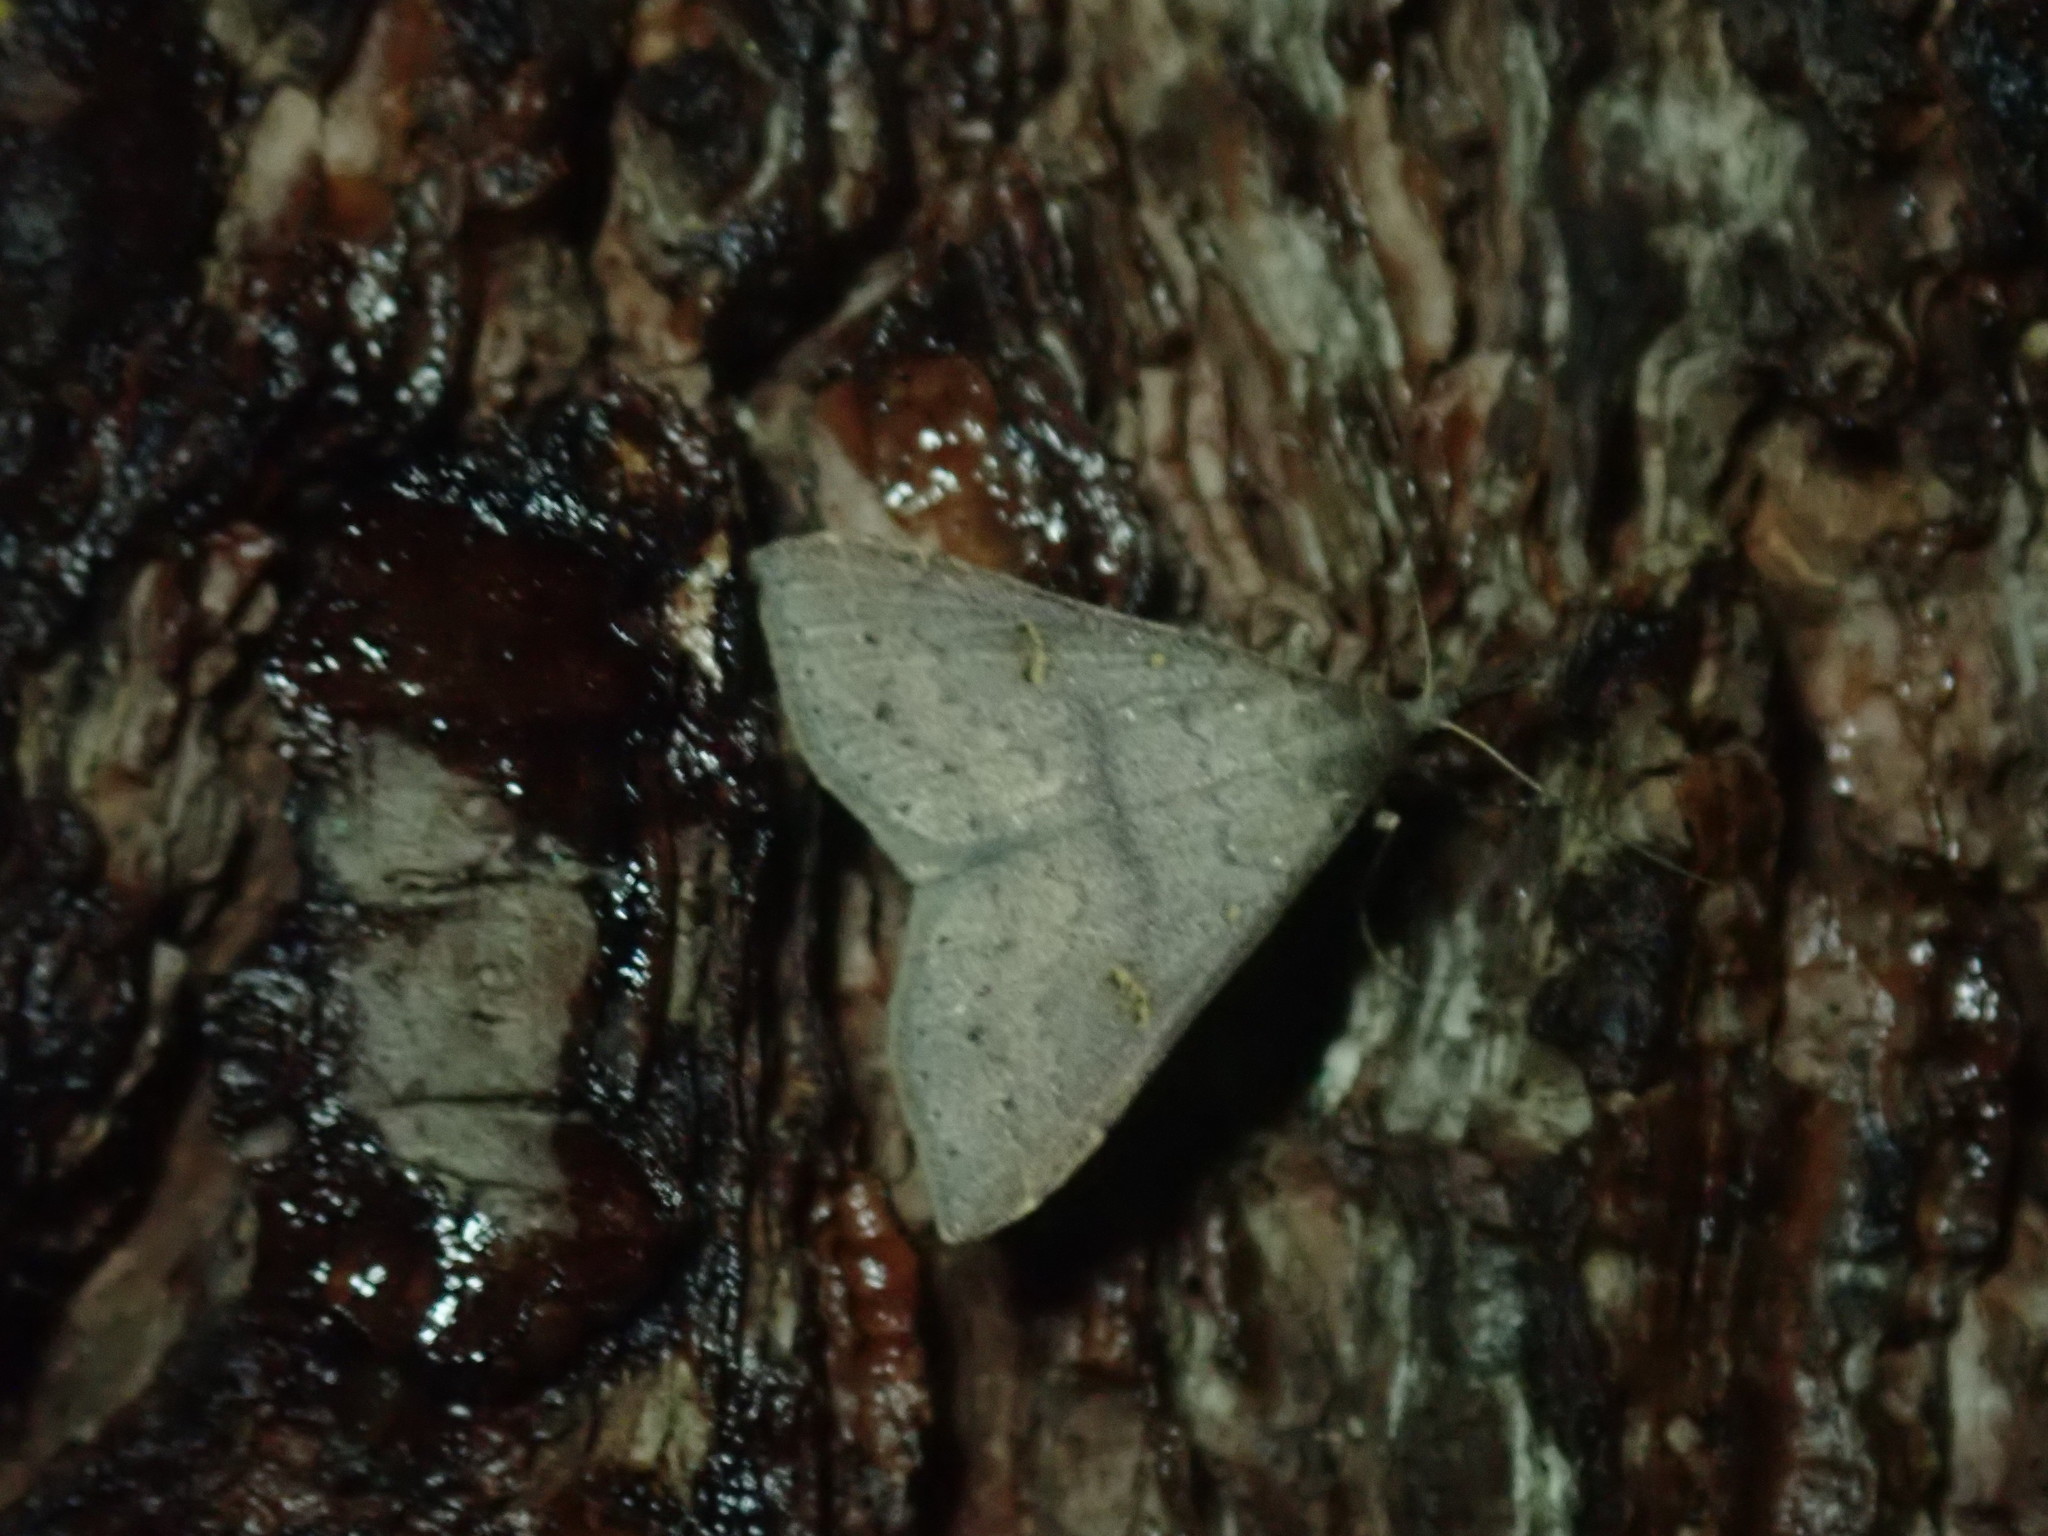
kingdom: Animalia
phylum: Arthropoda
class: Insecta
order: Lepidoptera
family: Erebidae
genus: Renia
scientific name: Renia adspergillus
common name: Speckled renia moth
